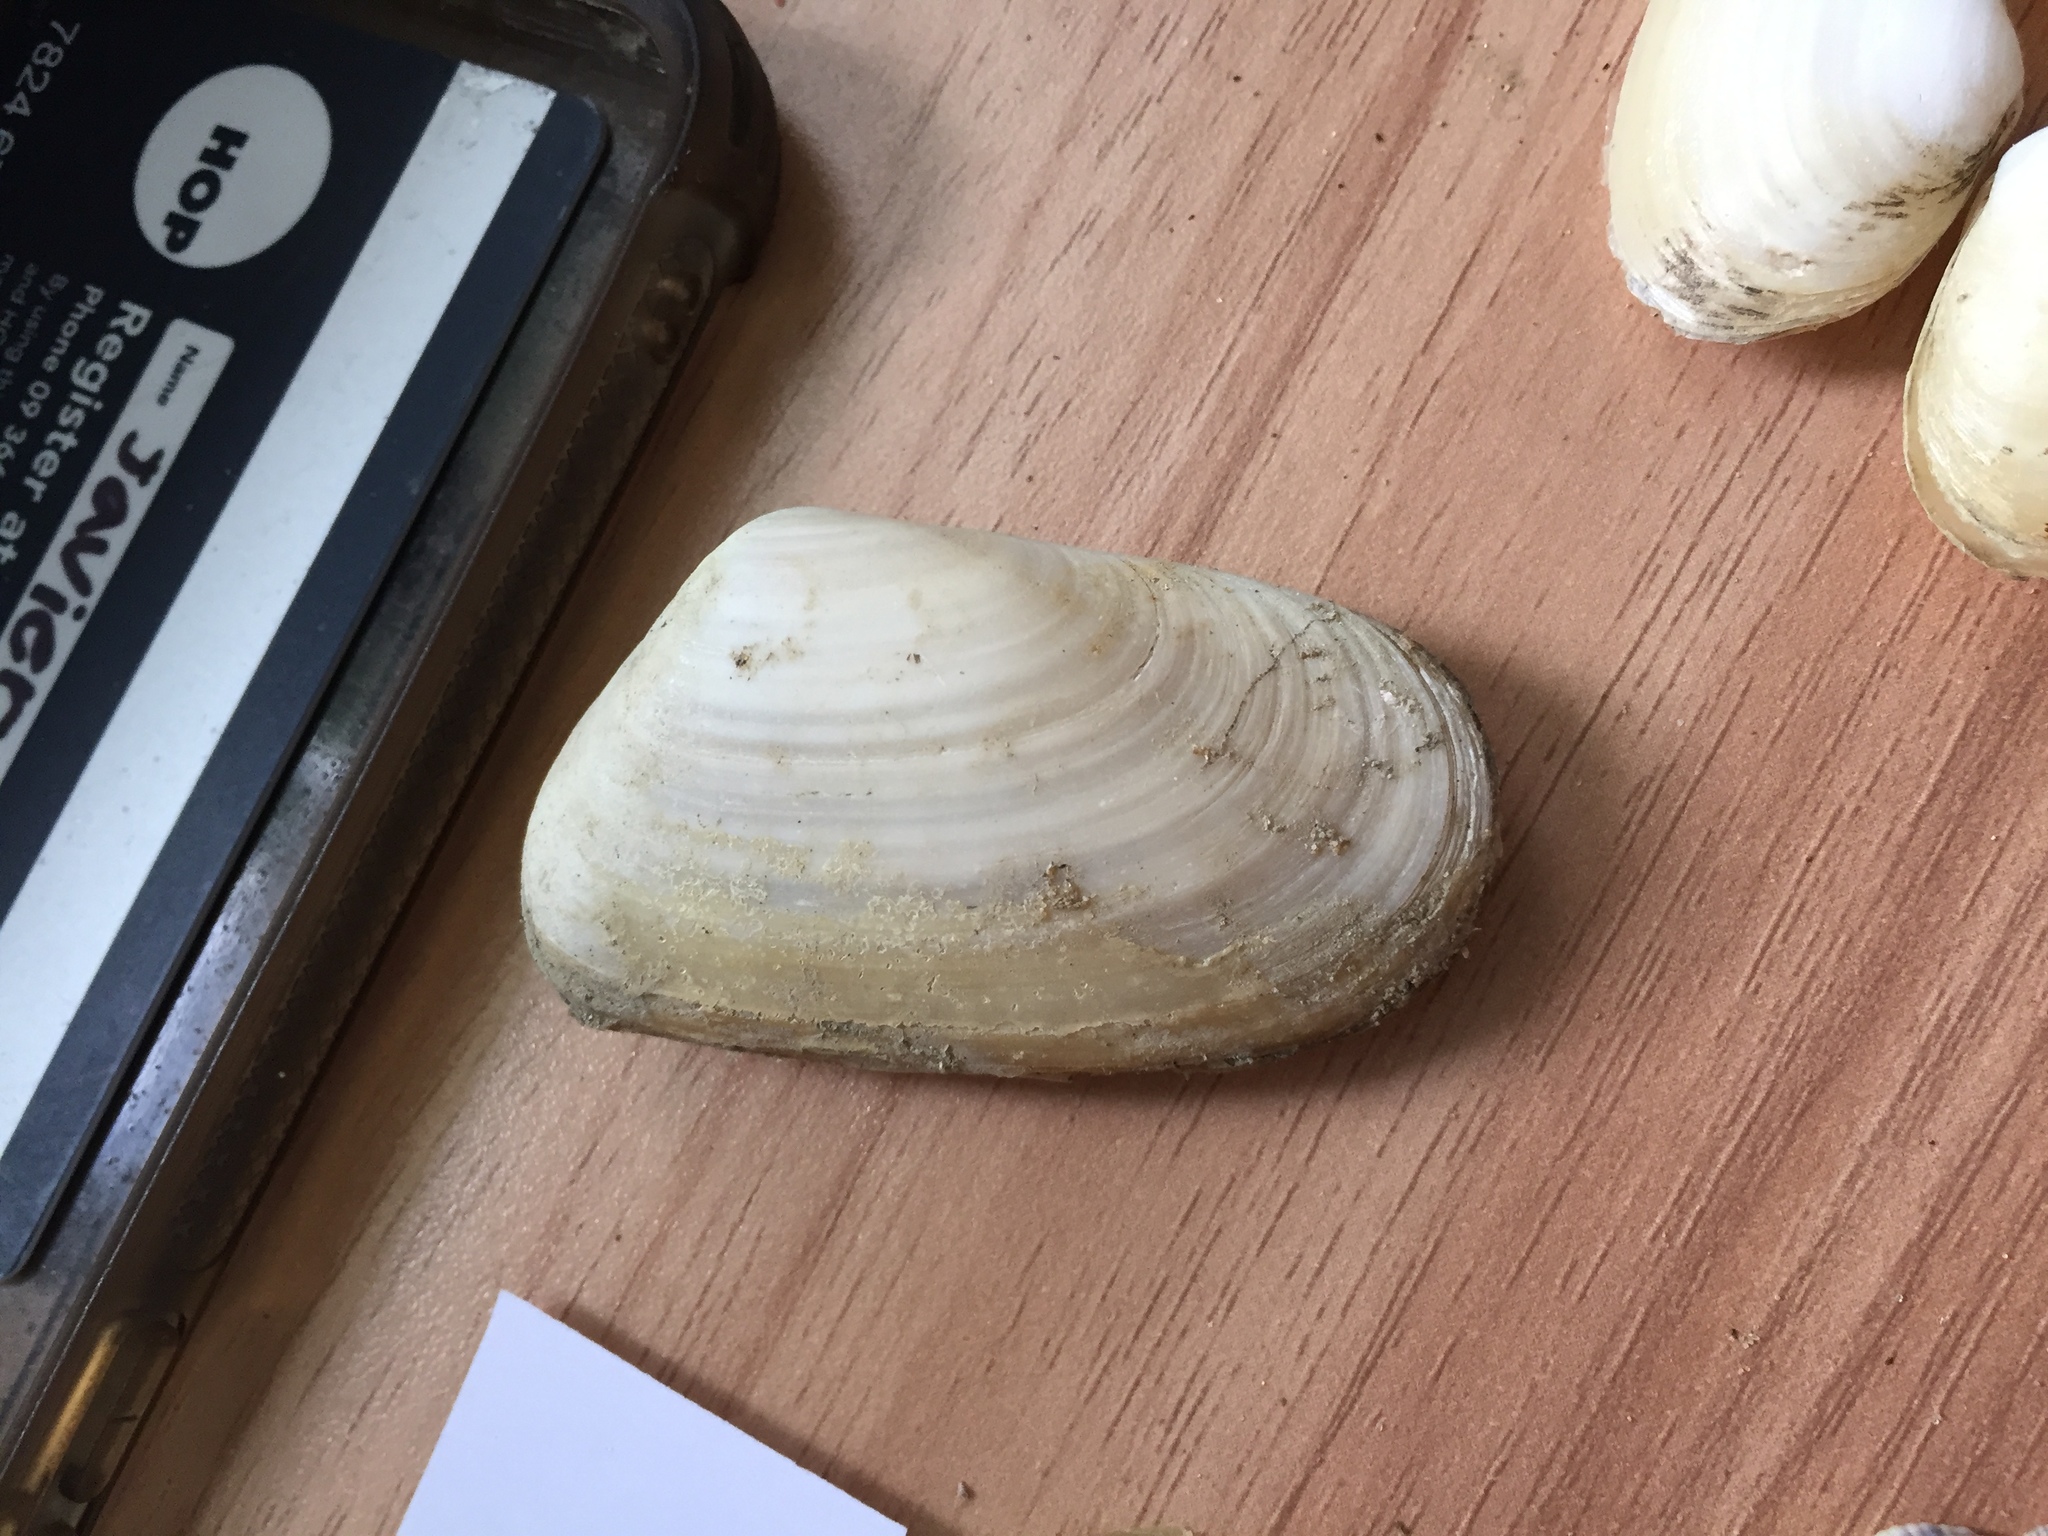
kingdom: Animalia
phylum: Mollusca
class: Bivalvia
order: Venerida
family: Mesodesmatidae
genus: Paphies
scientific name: Paphies subtriangulata
